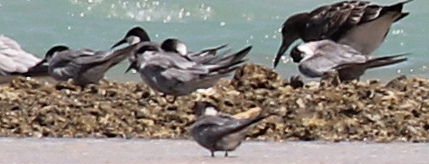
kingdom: Animalia
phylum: Chordata
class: Aves
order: Charadriiformes
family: Laridae
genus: Sterna
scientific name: Sterna repressa
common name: White-cheeked tern
